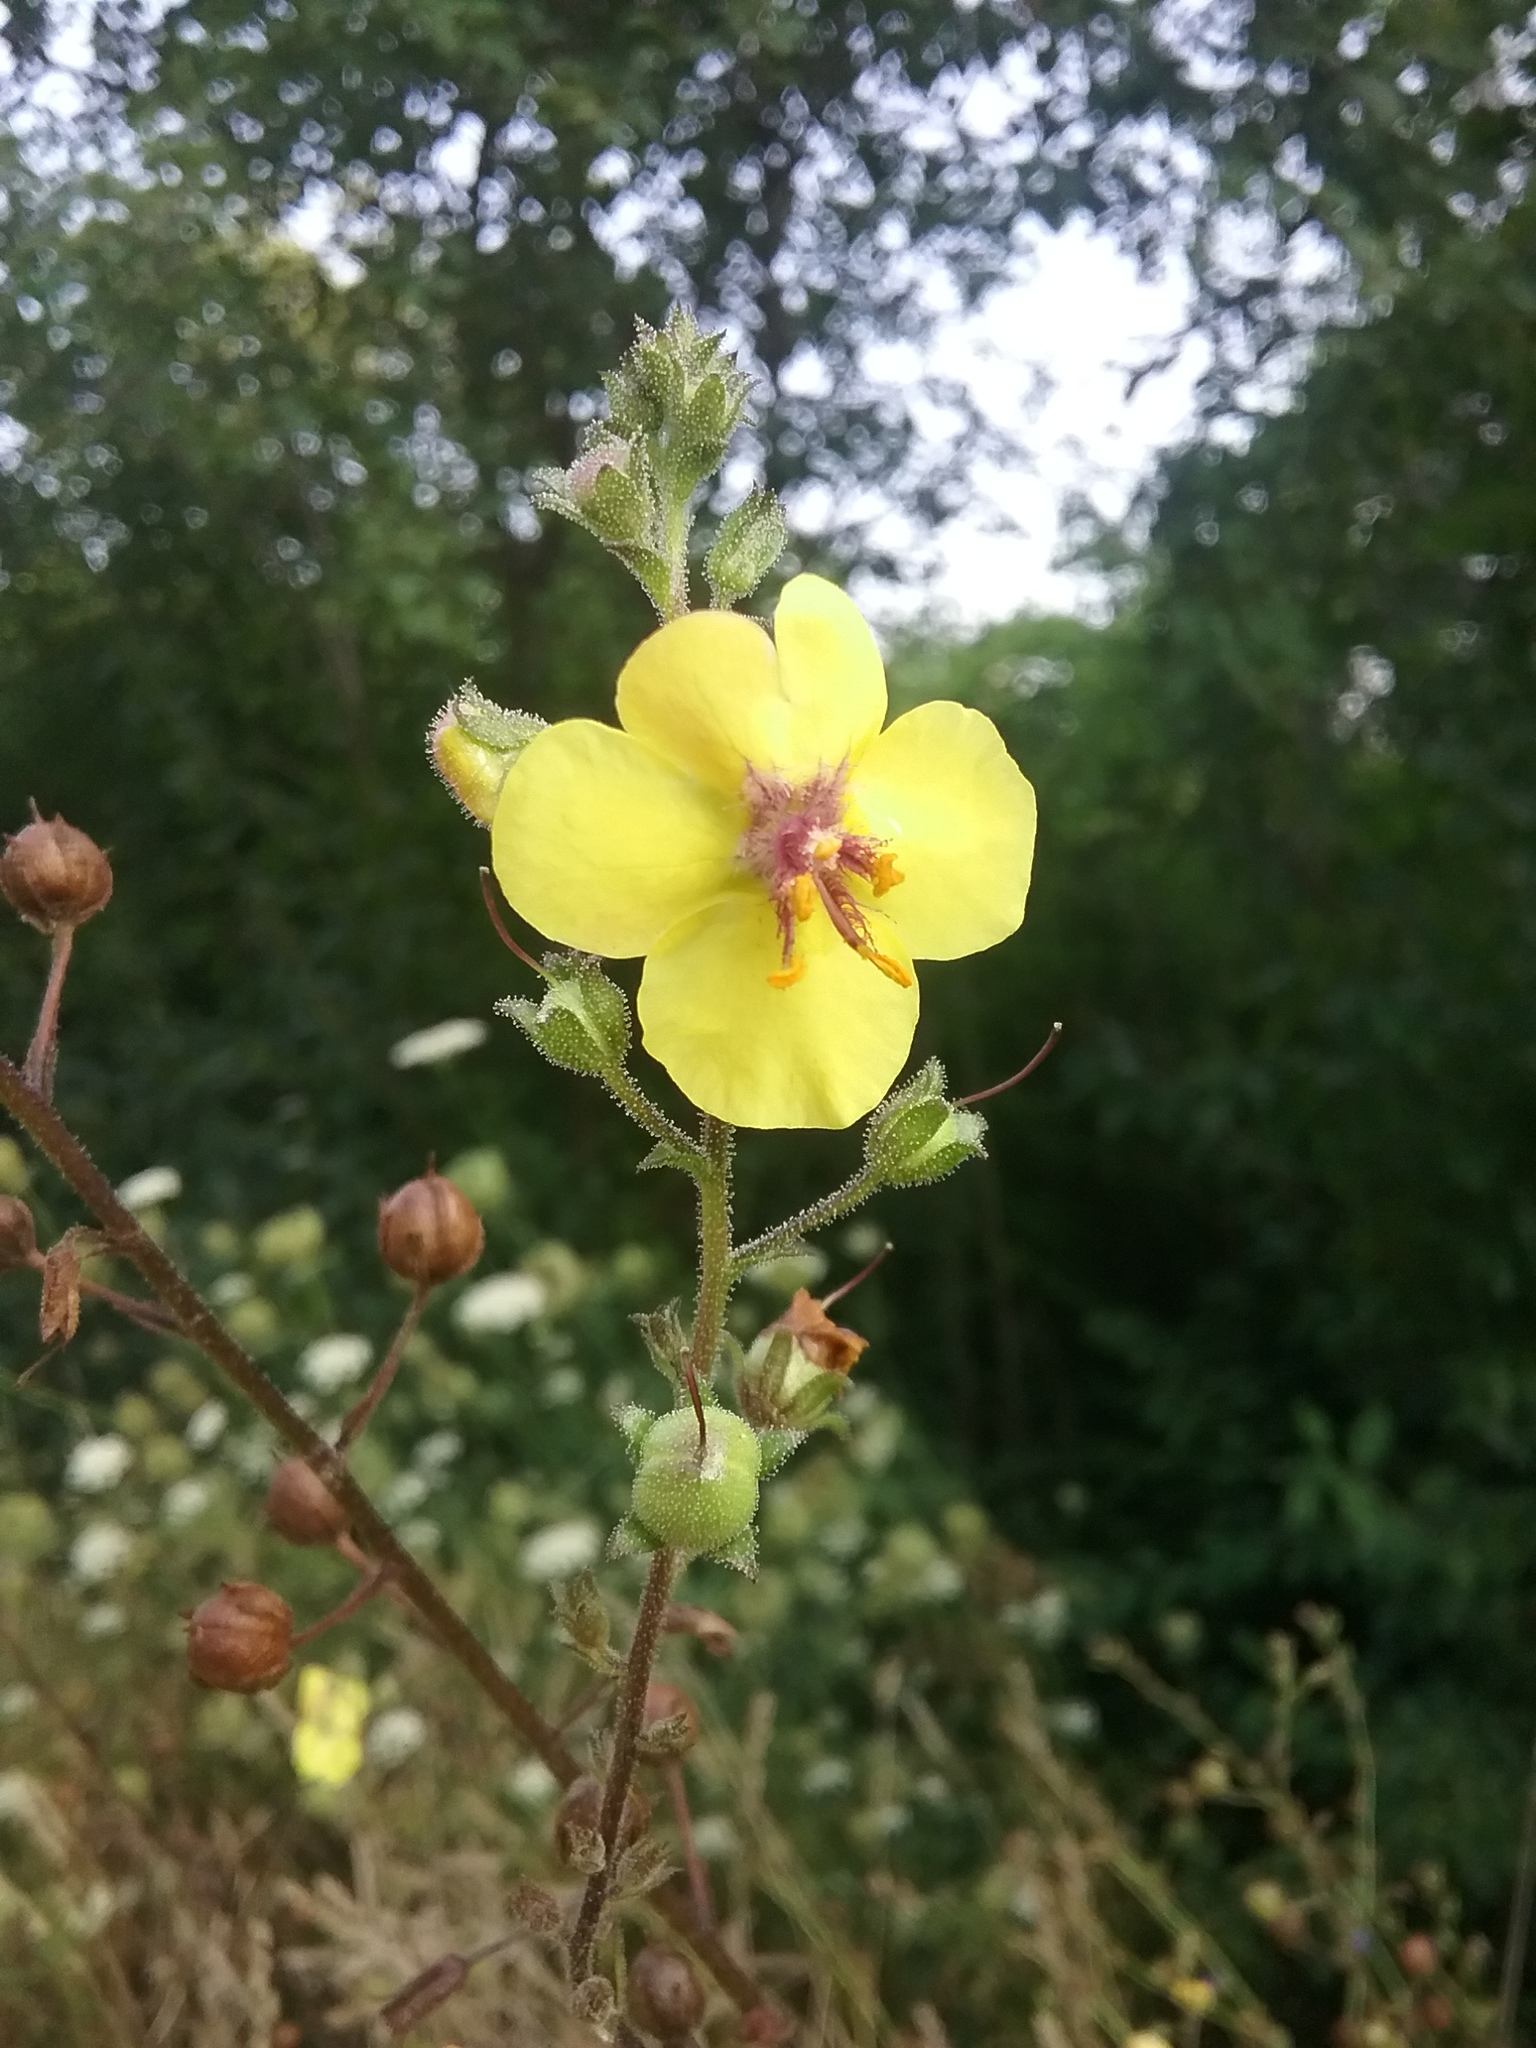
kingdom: Plantae
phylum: Tracheophyta
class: Magnoliopsida
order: Lamiales
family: Scrophulariaceae
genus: Verbascum
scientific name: Verbascum blattaria
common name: Moth mullein
